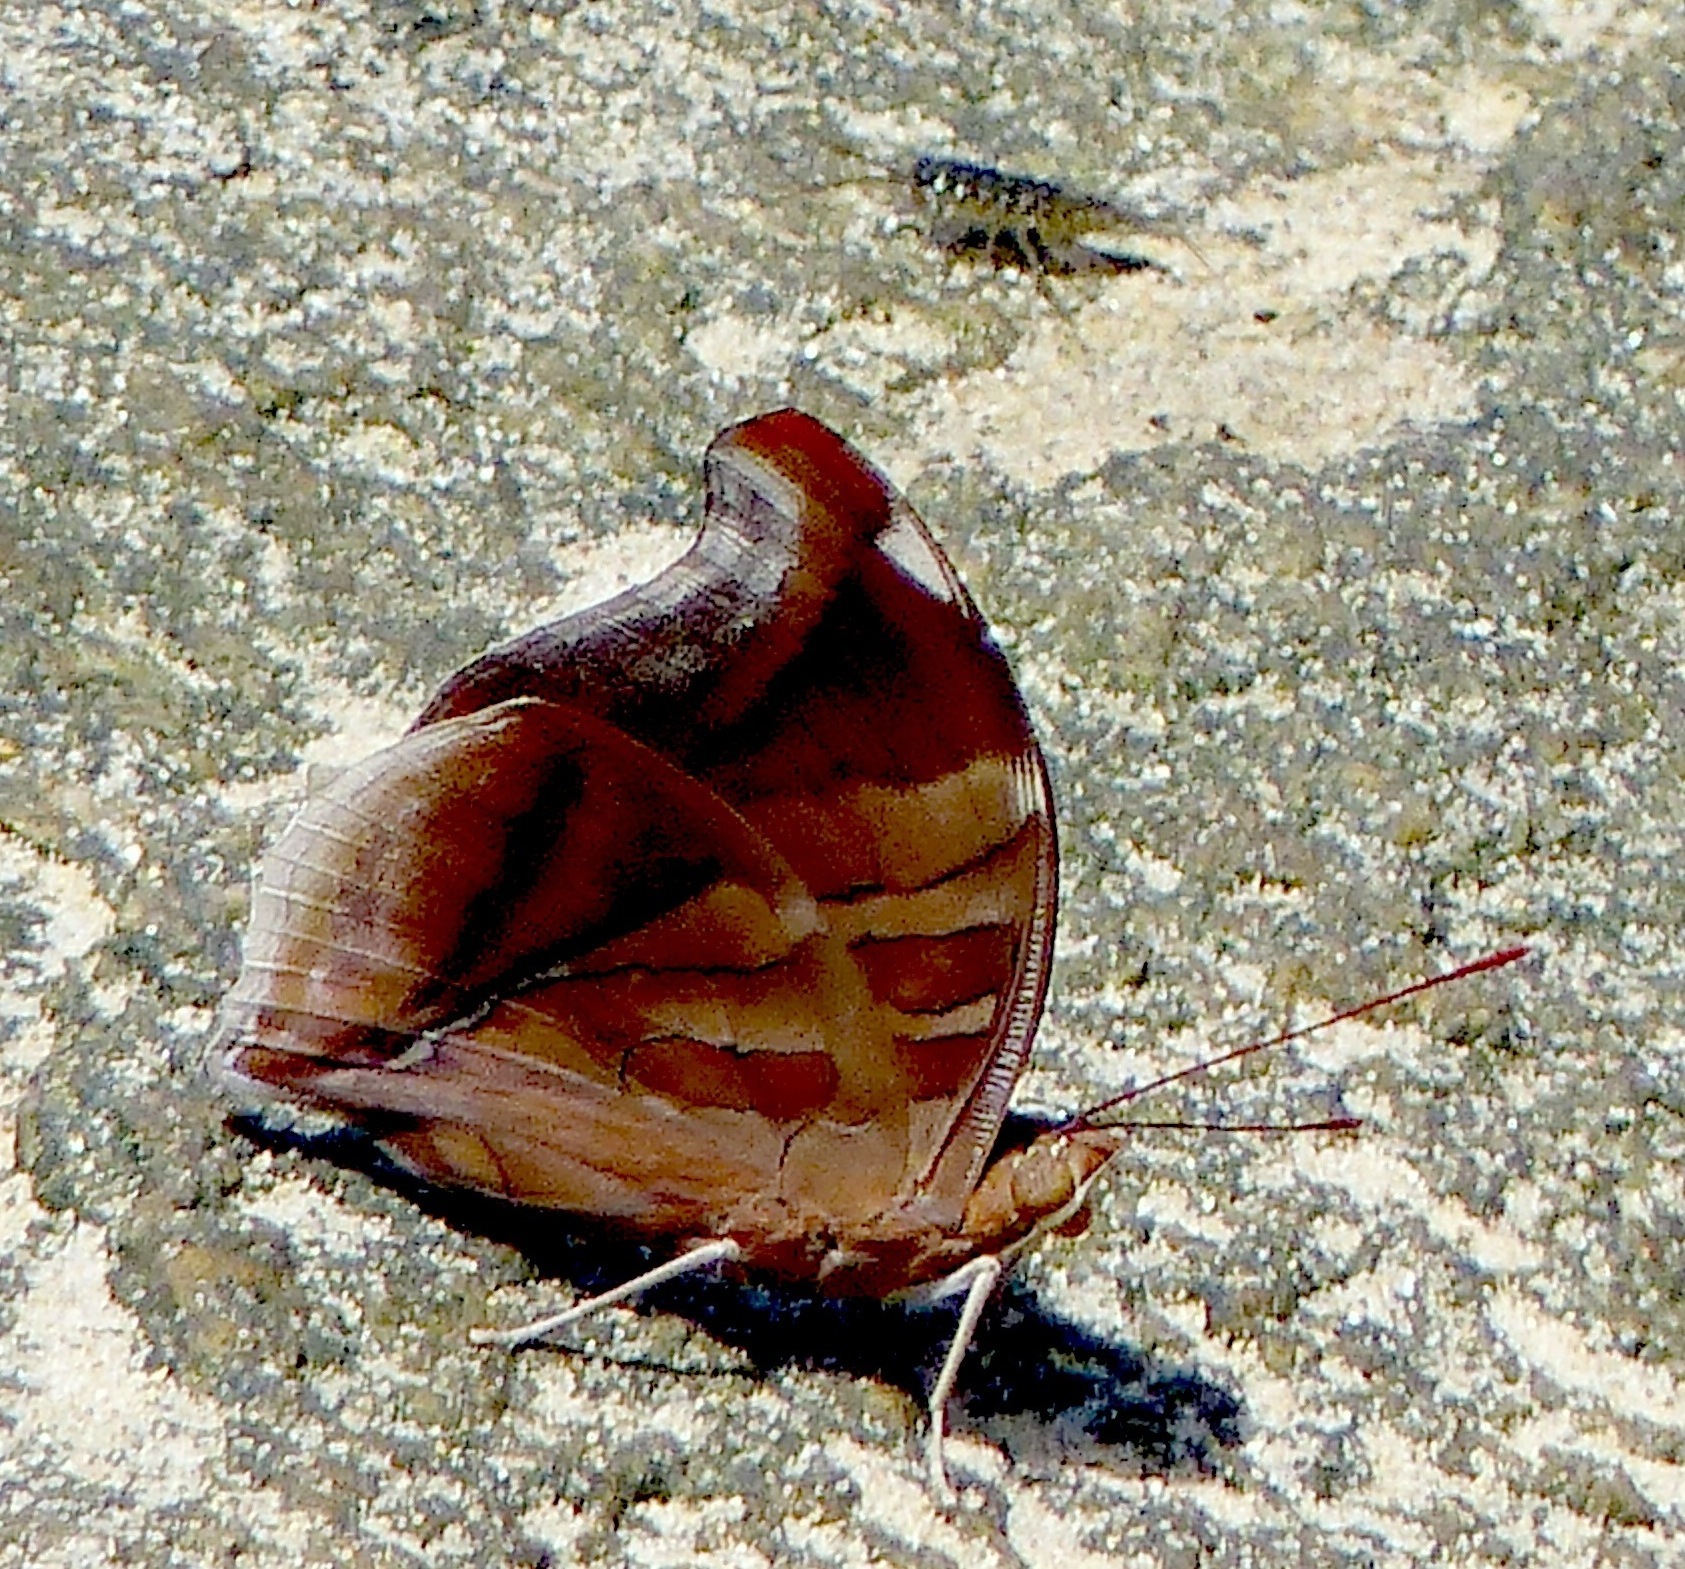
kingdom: Animalia
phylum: Arthropoda
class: Insecta
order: Lepidoptera
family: Nymphalidae
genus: Historis
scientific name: Historis odius
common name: Orion cecropian
